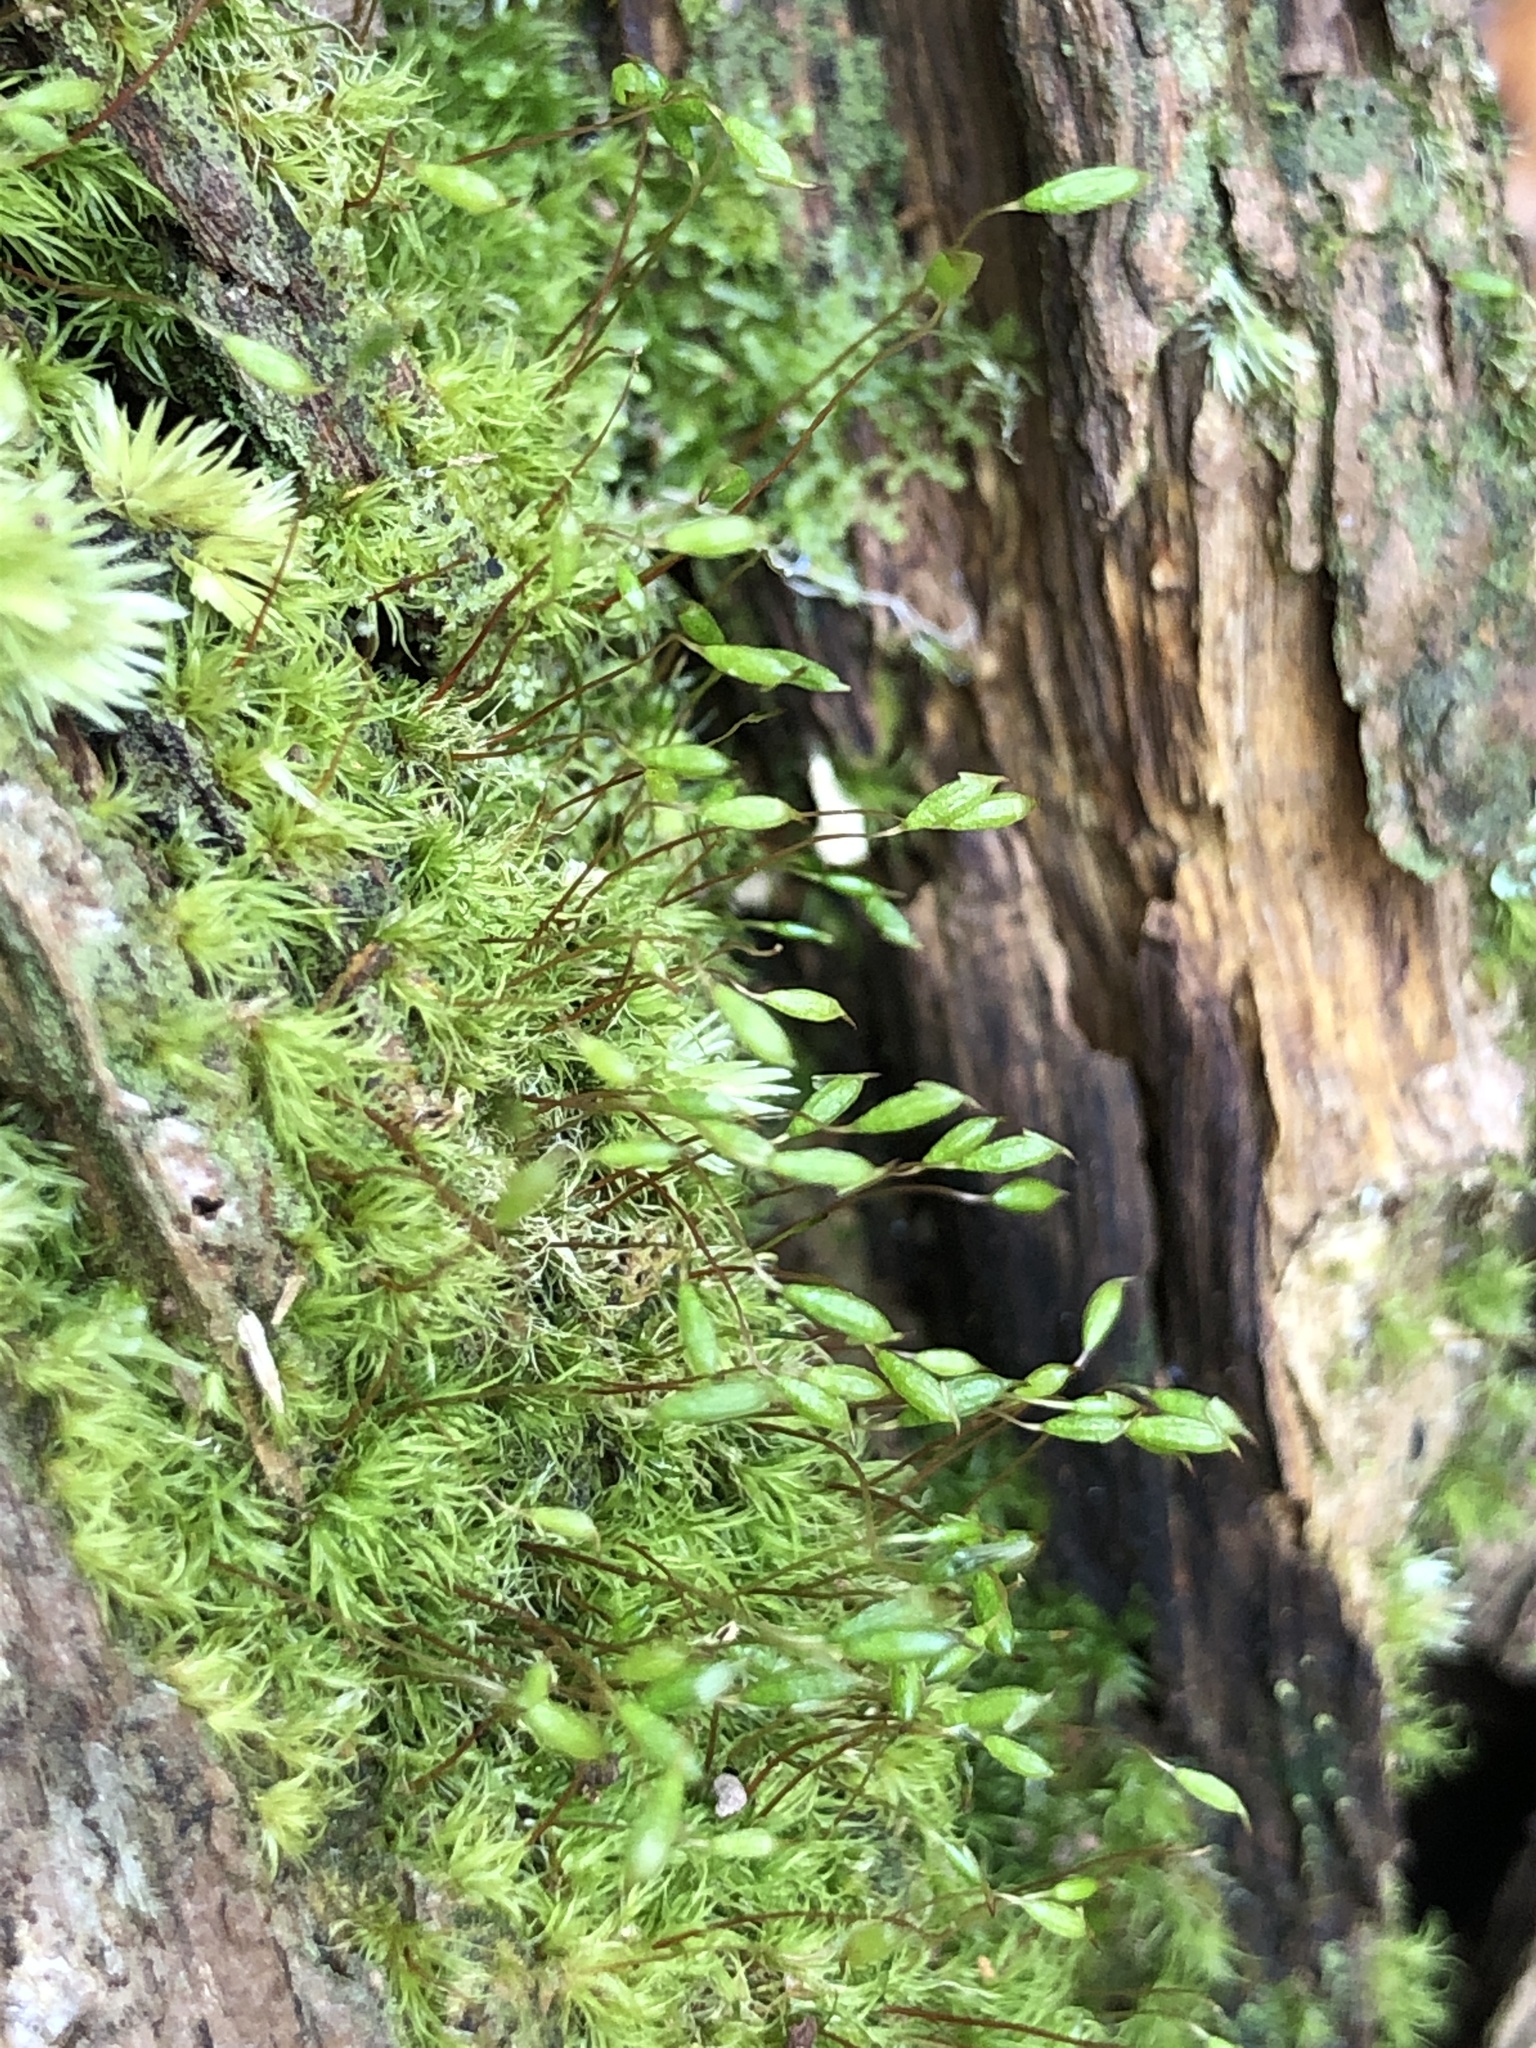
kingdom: Plantae
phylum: Bryophyta
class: Bryopsida
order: Orthodontiales
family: Orthodontiaceae
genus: Orthodontium
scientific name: Orthodontium lineare
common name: Cape thread-moss
